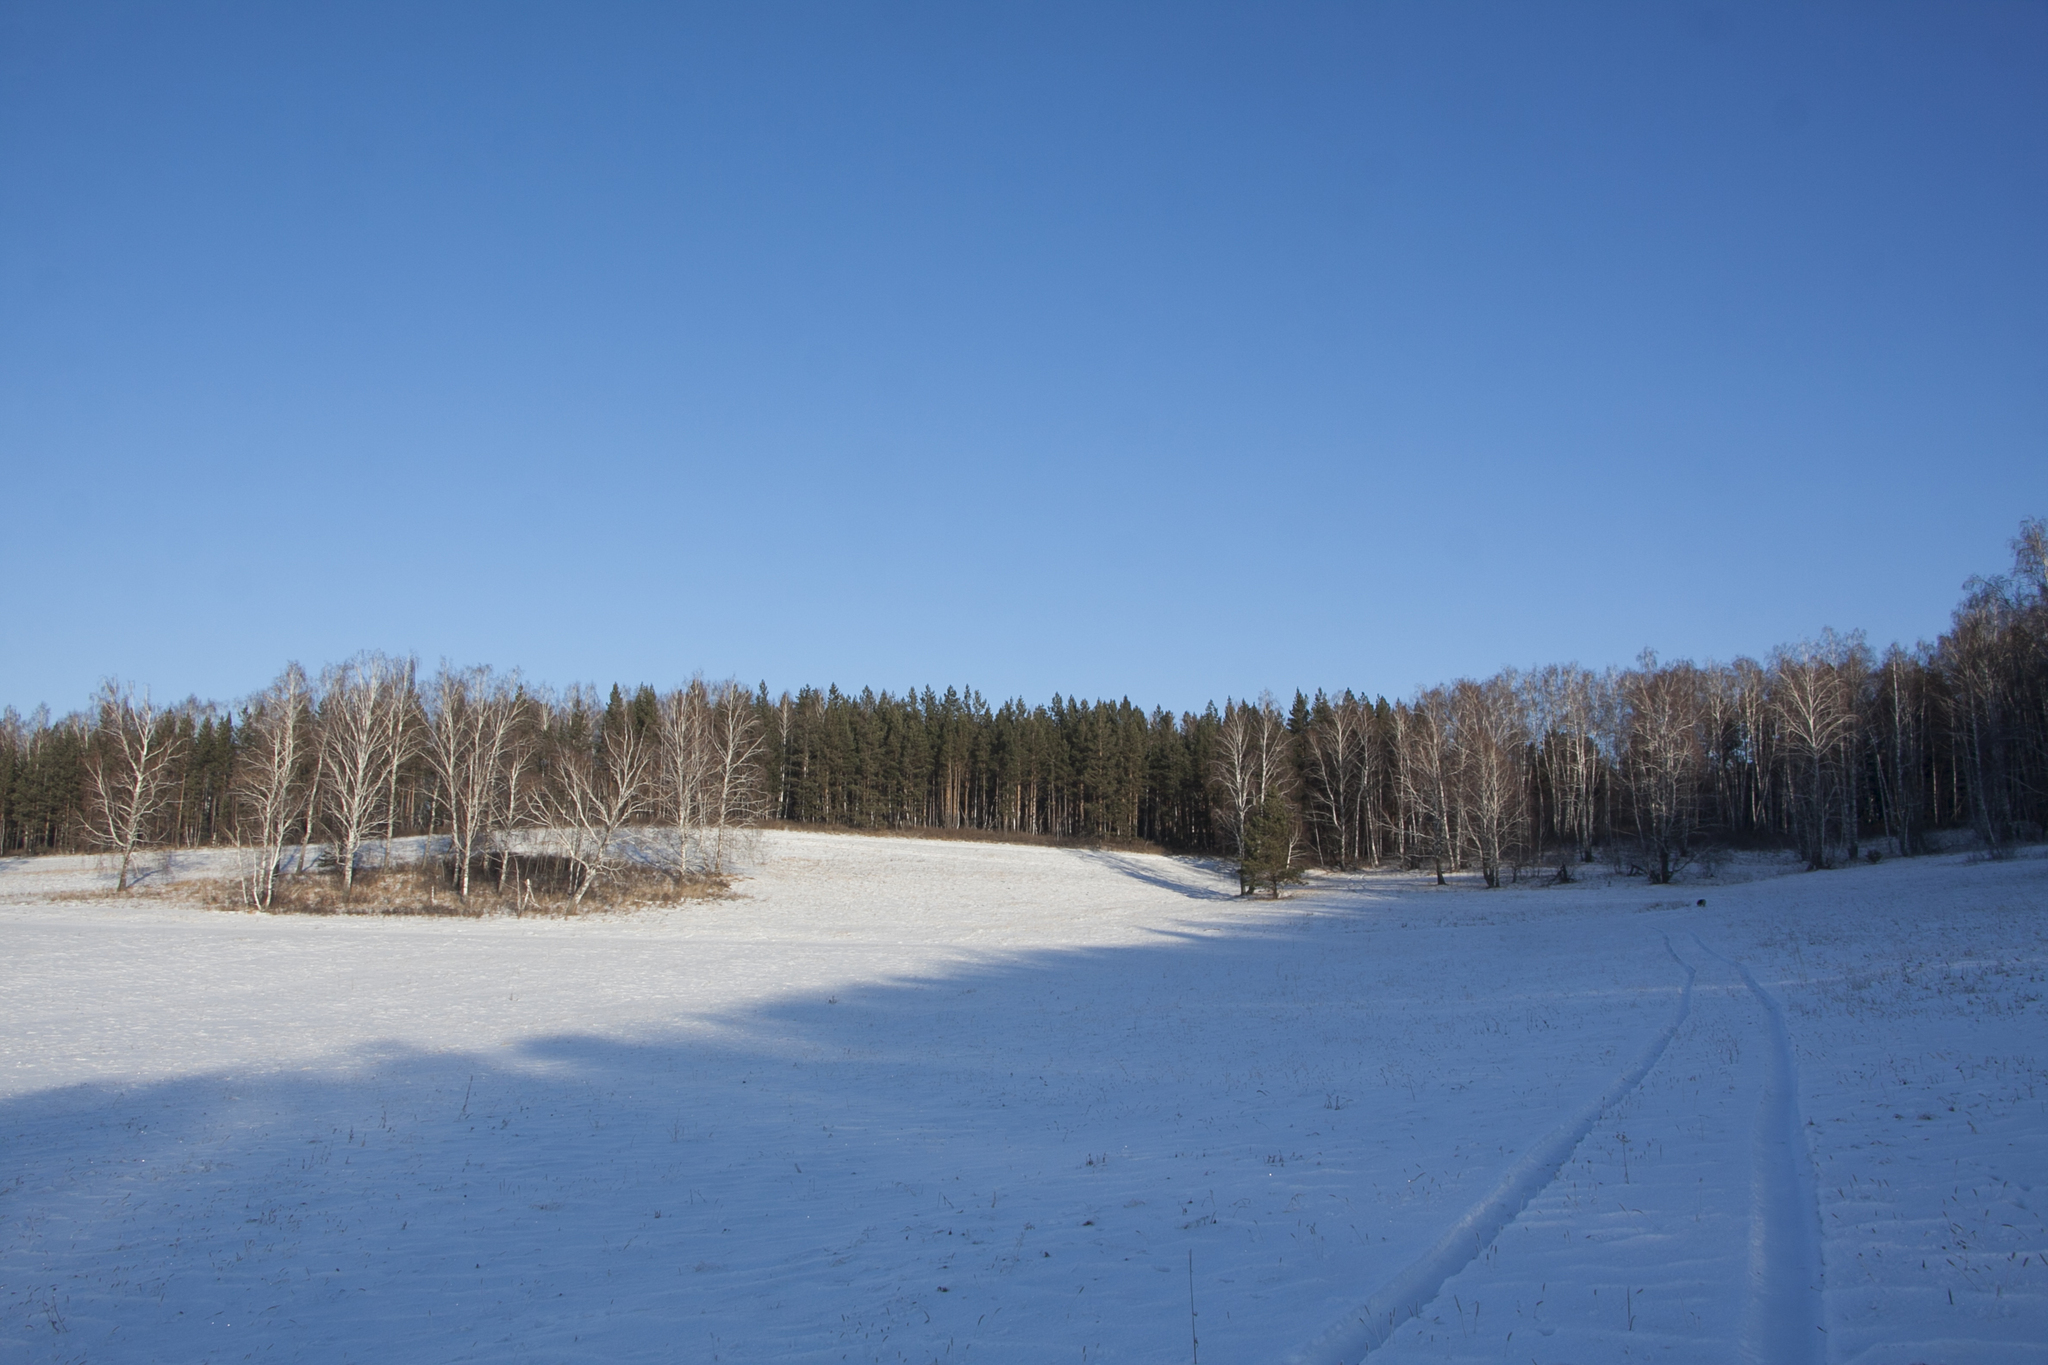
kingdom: Plantae
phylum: Tracheophyta
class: Pinopsida
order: Pinales
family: Pinaceae
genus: Pinus
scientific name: Pinus sylvestris
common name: Scots pine
